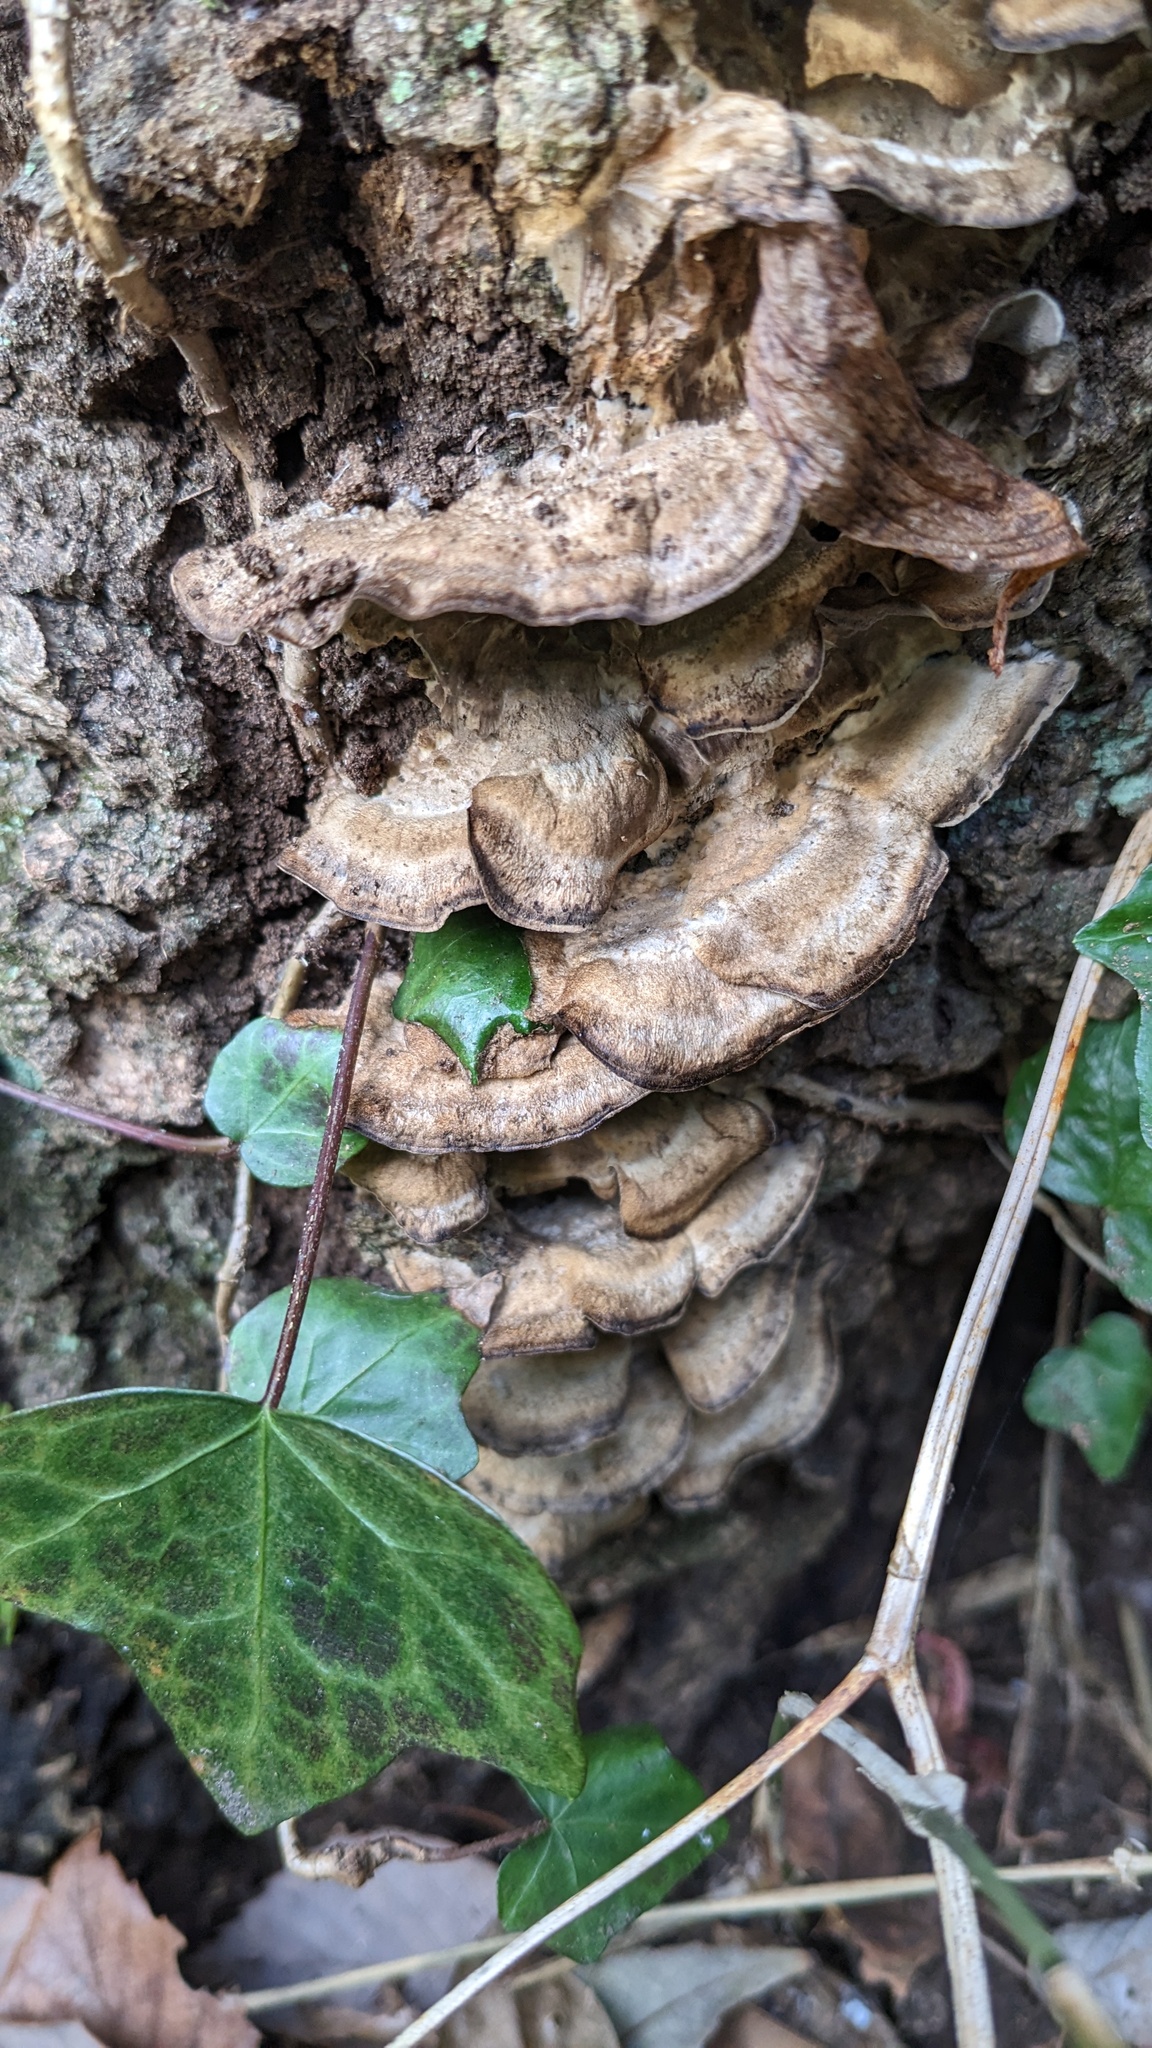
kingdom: Fungi
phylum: Basidiomycota
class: Agaricomycetes
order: Polyporales
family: Phanerochaetaceae
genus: Bjerkandera
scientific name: Bjerkandera adusta
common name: Smoky bracket
